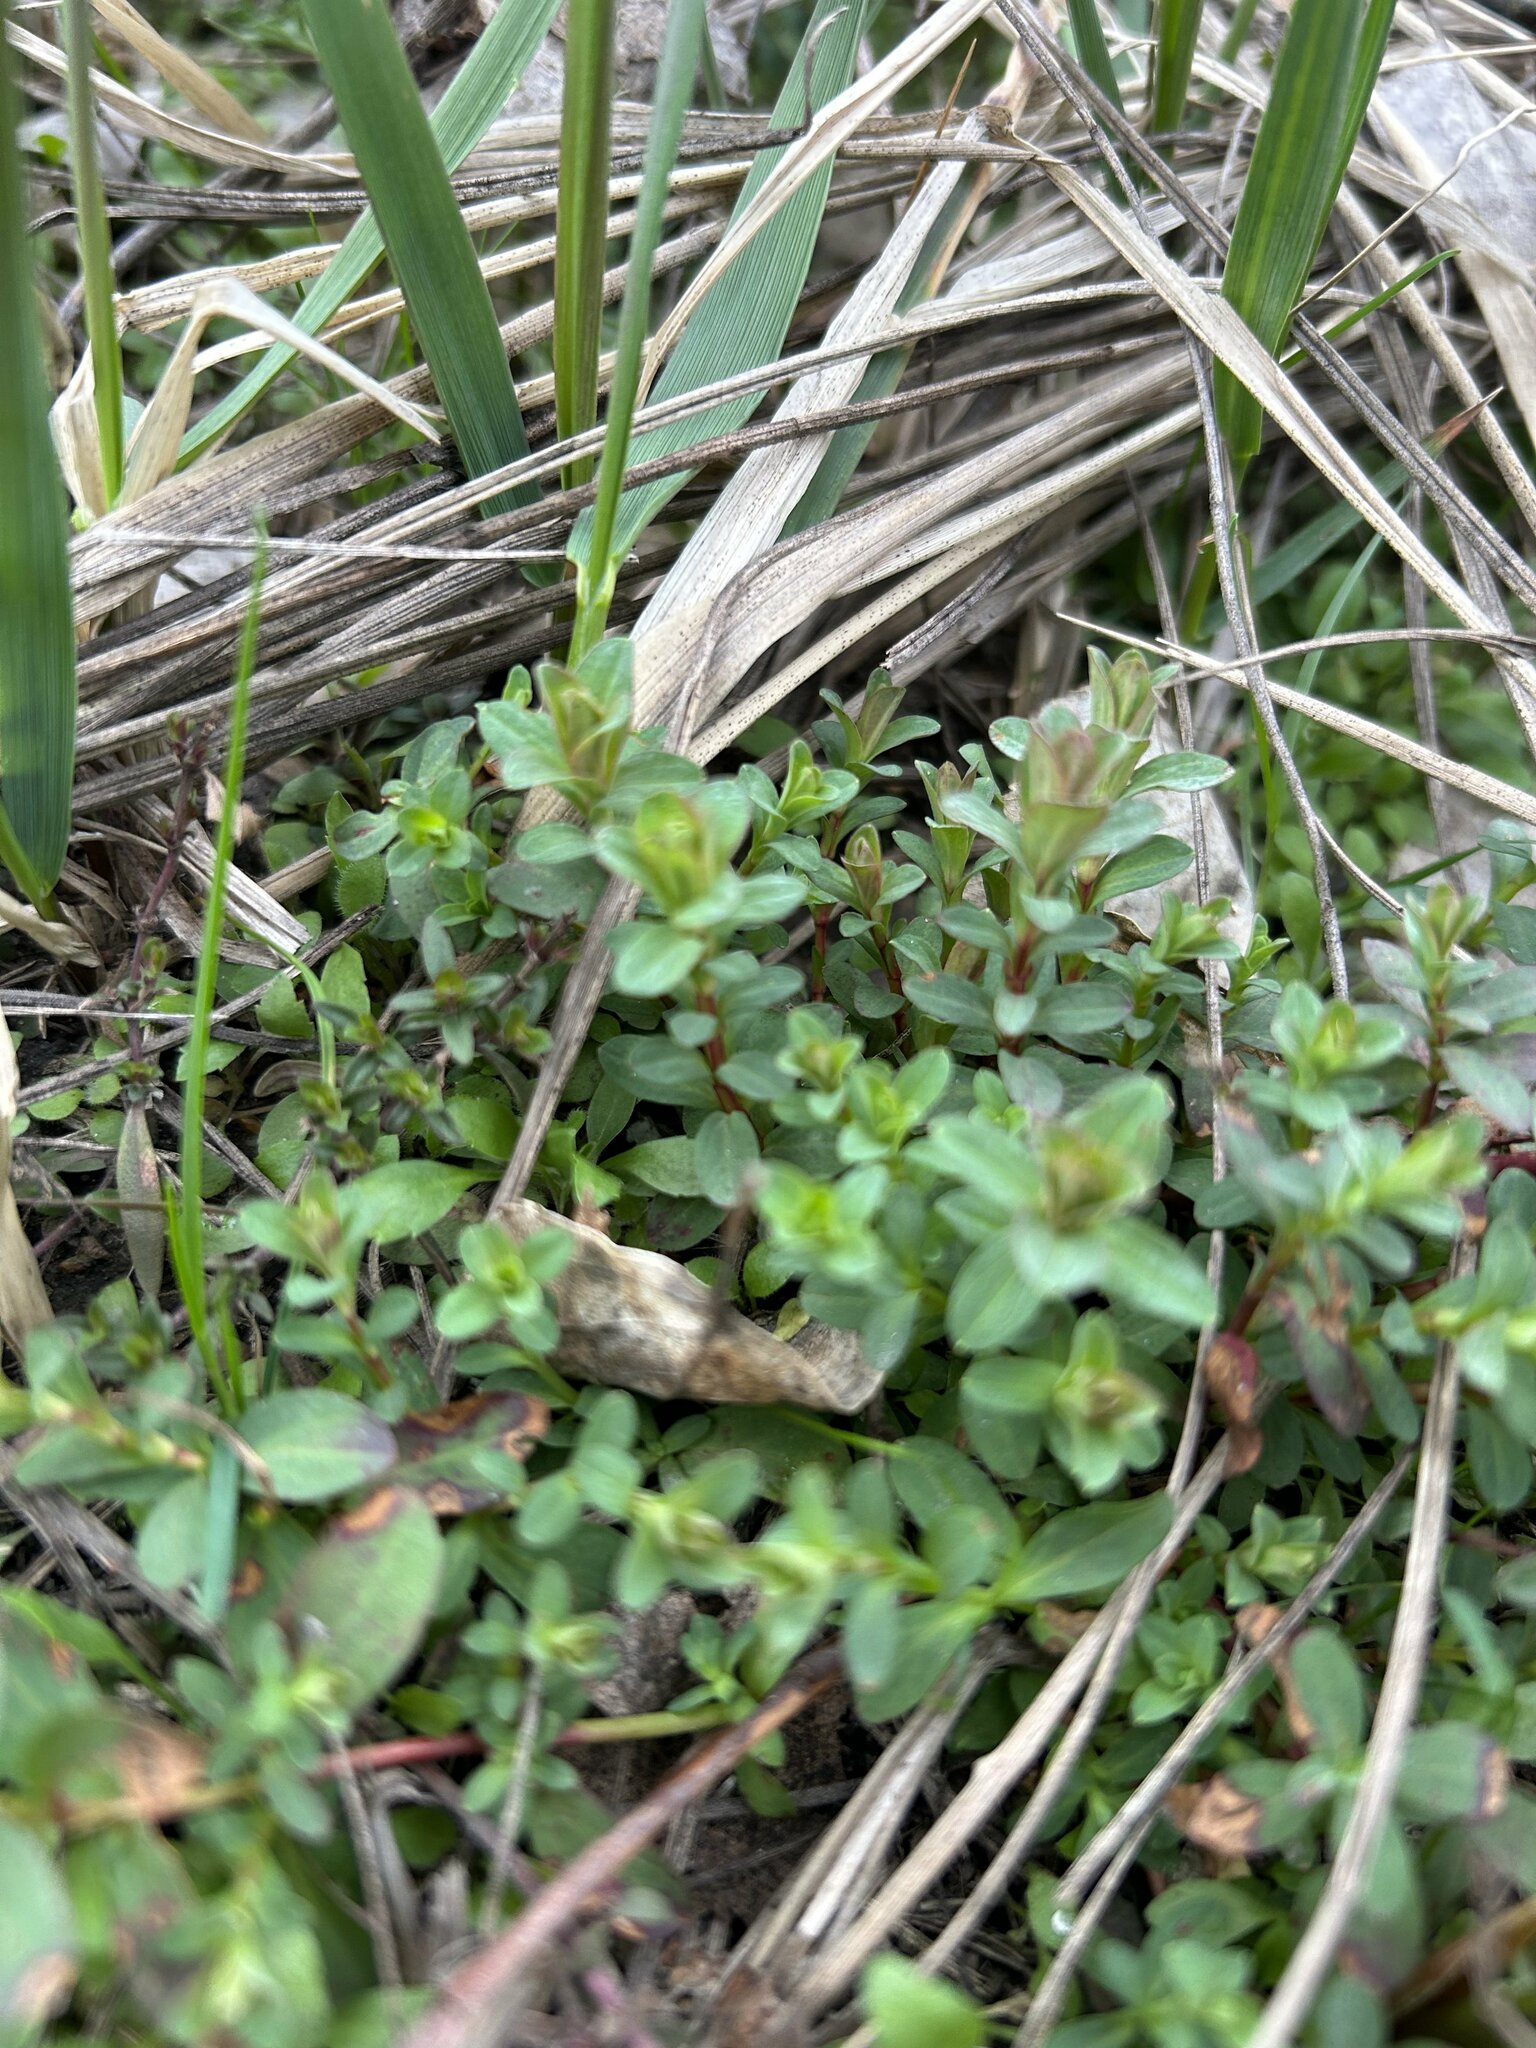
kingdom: Plantae
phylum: Tracheophyta
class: Magnoliopsida
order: Malpighiales
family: Hypericaceae
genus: Hypericum
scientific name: Hypericum perforatum
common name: Common st. johnswort
